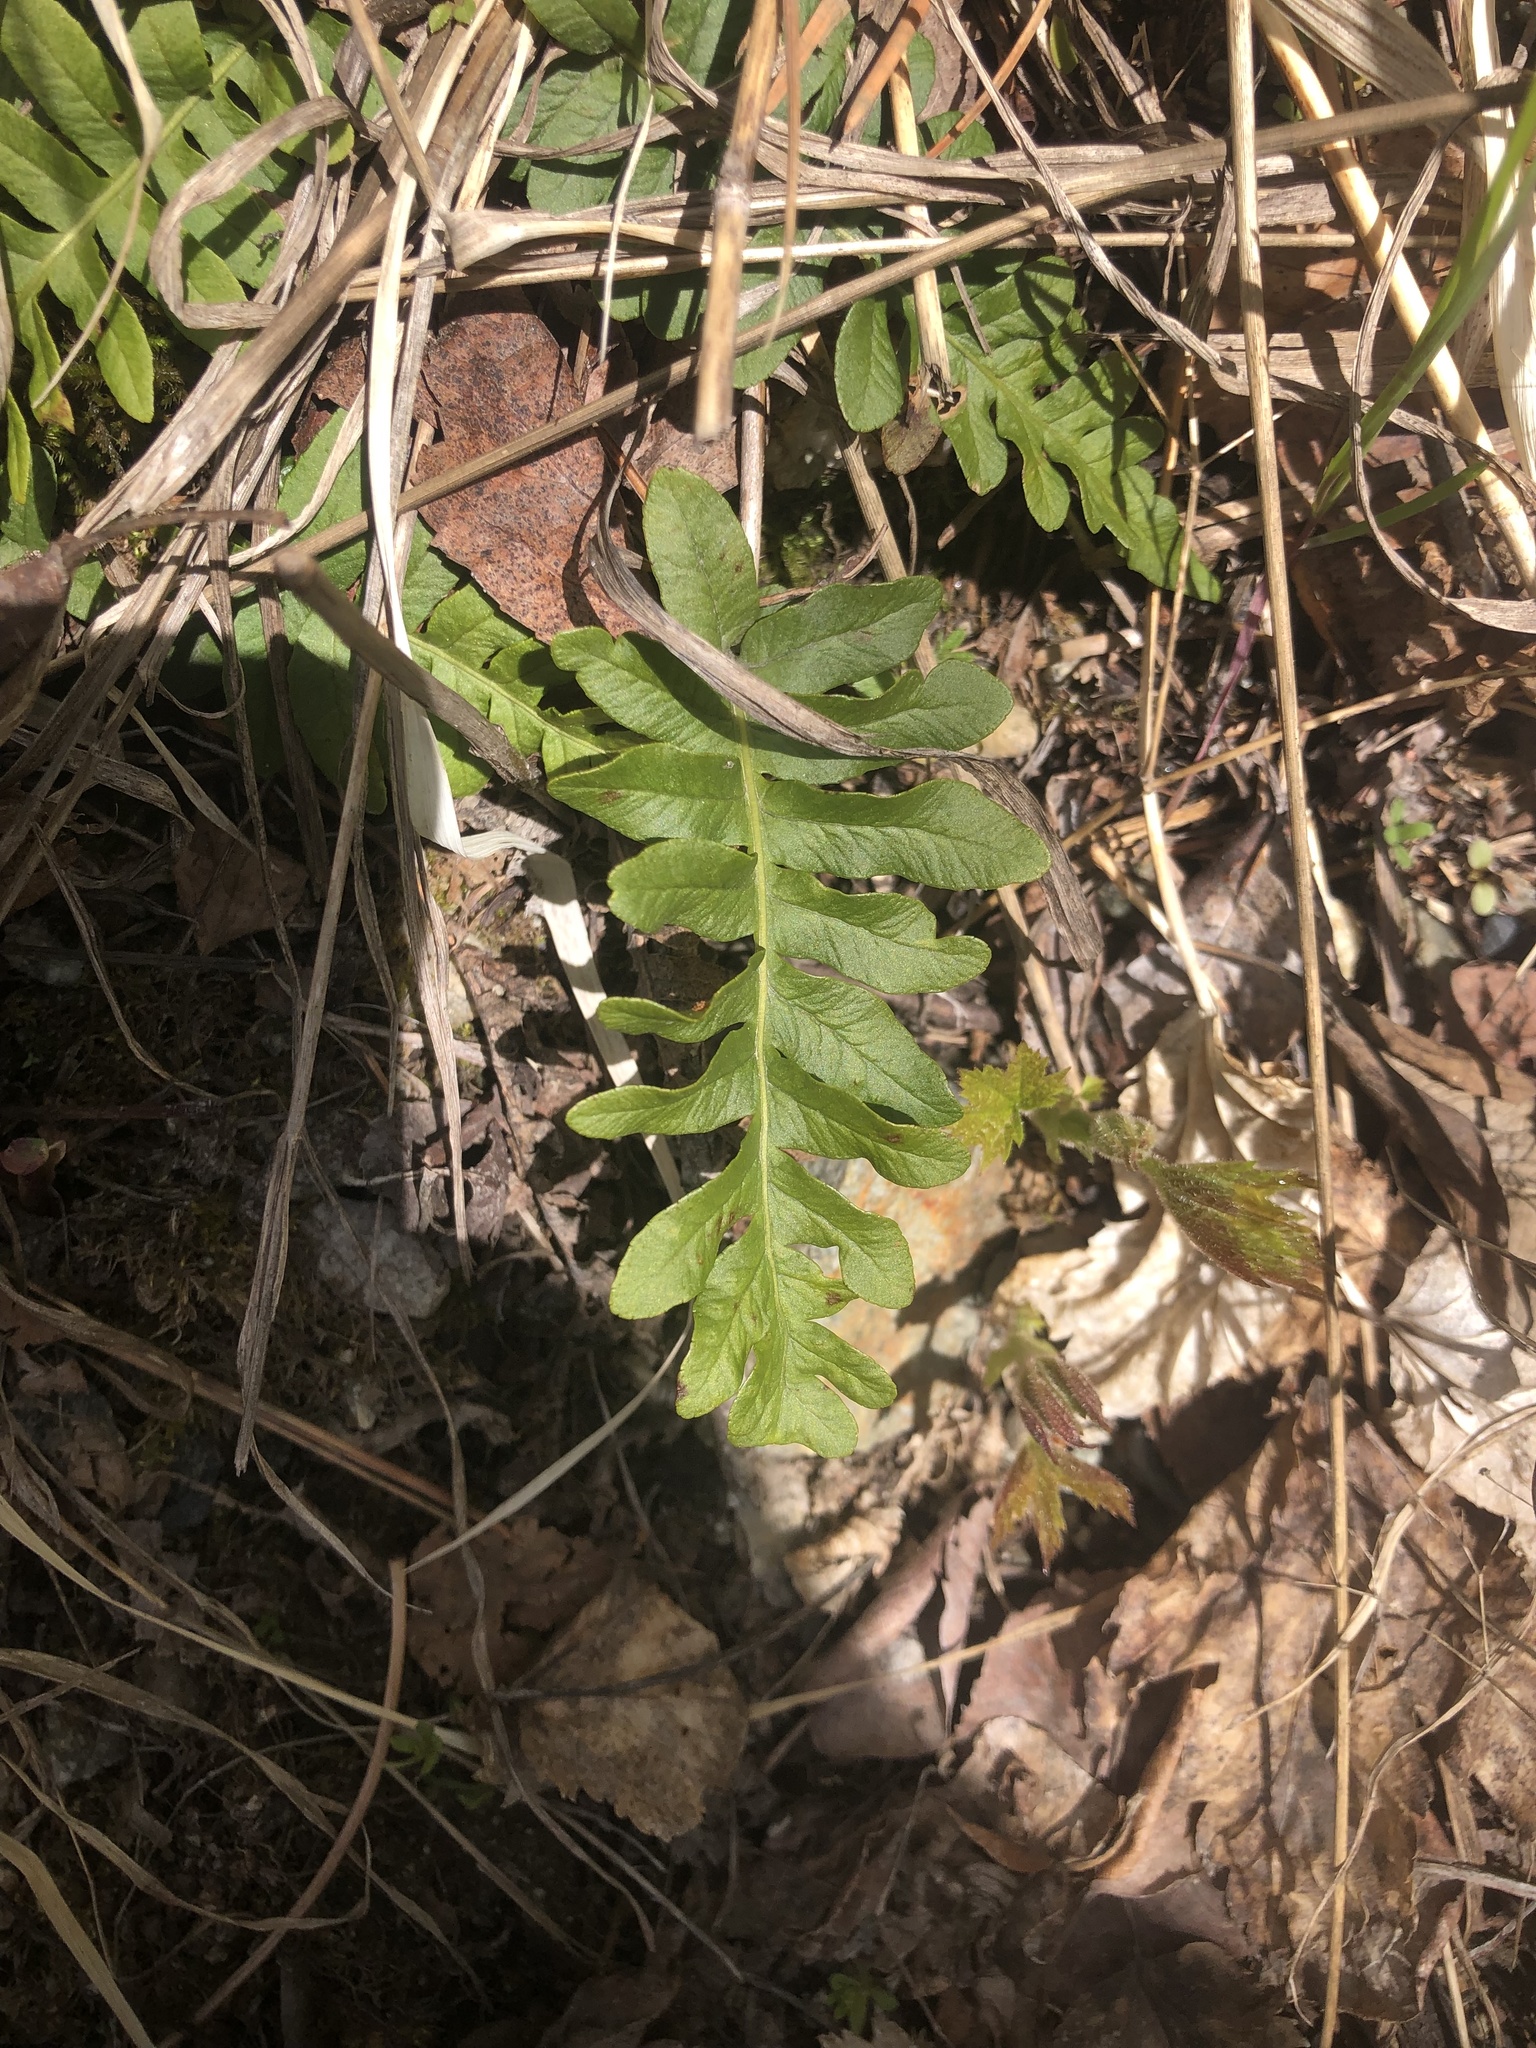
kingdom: Plantae
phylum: Tracheophyta
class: Polypodiopsida
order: Polypodiales
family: Polypodiaceae
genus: Polypodium
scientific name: Polypodium hesperium
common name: Western polypody
